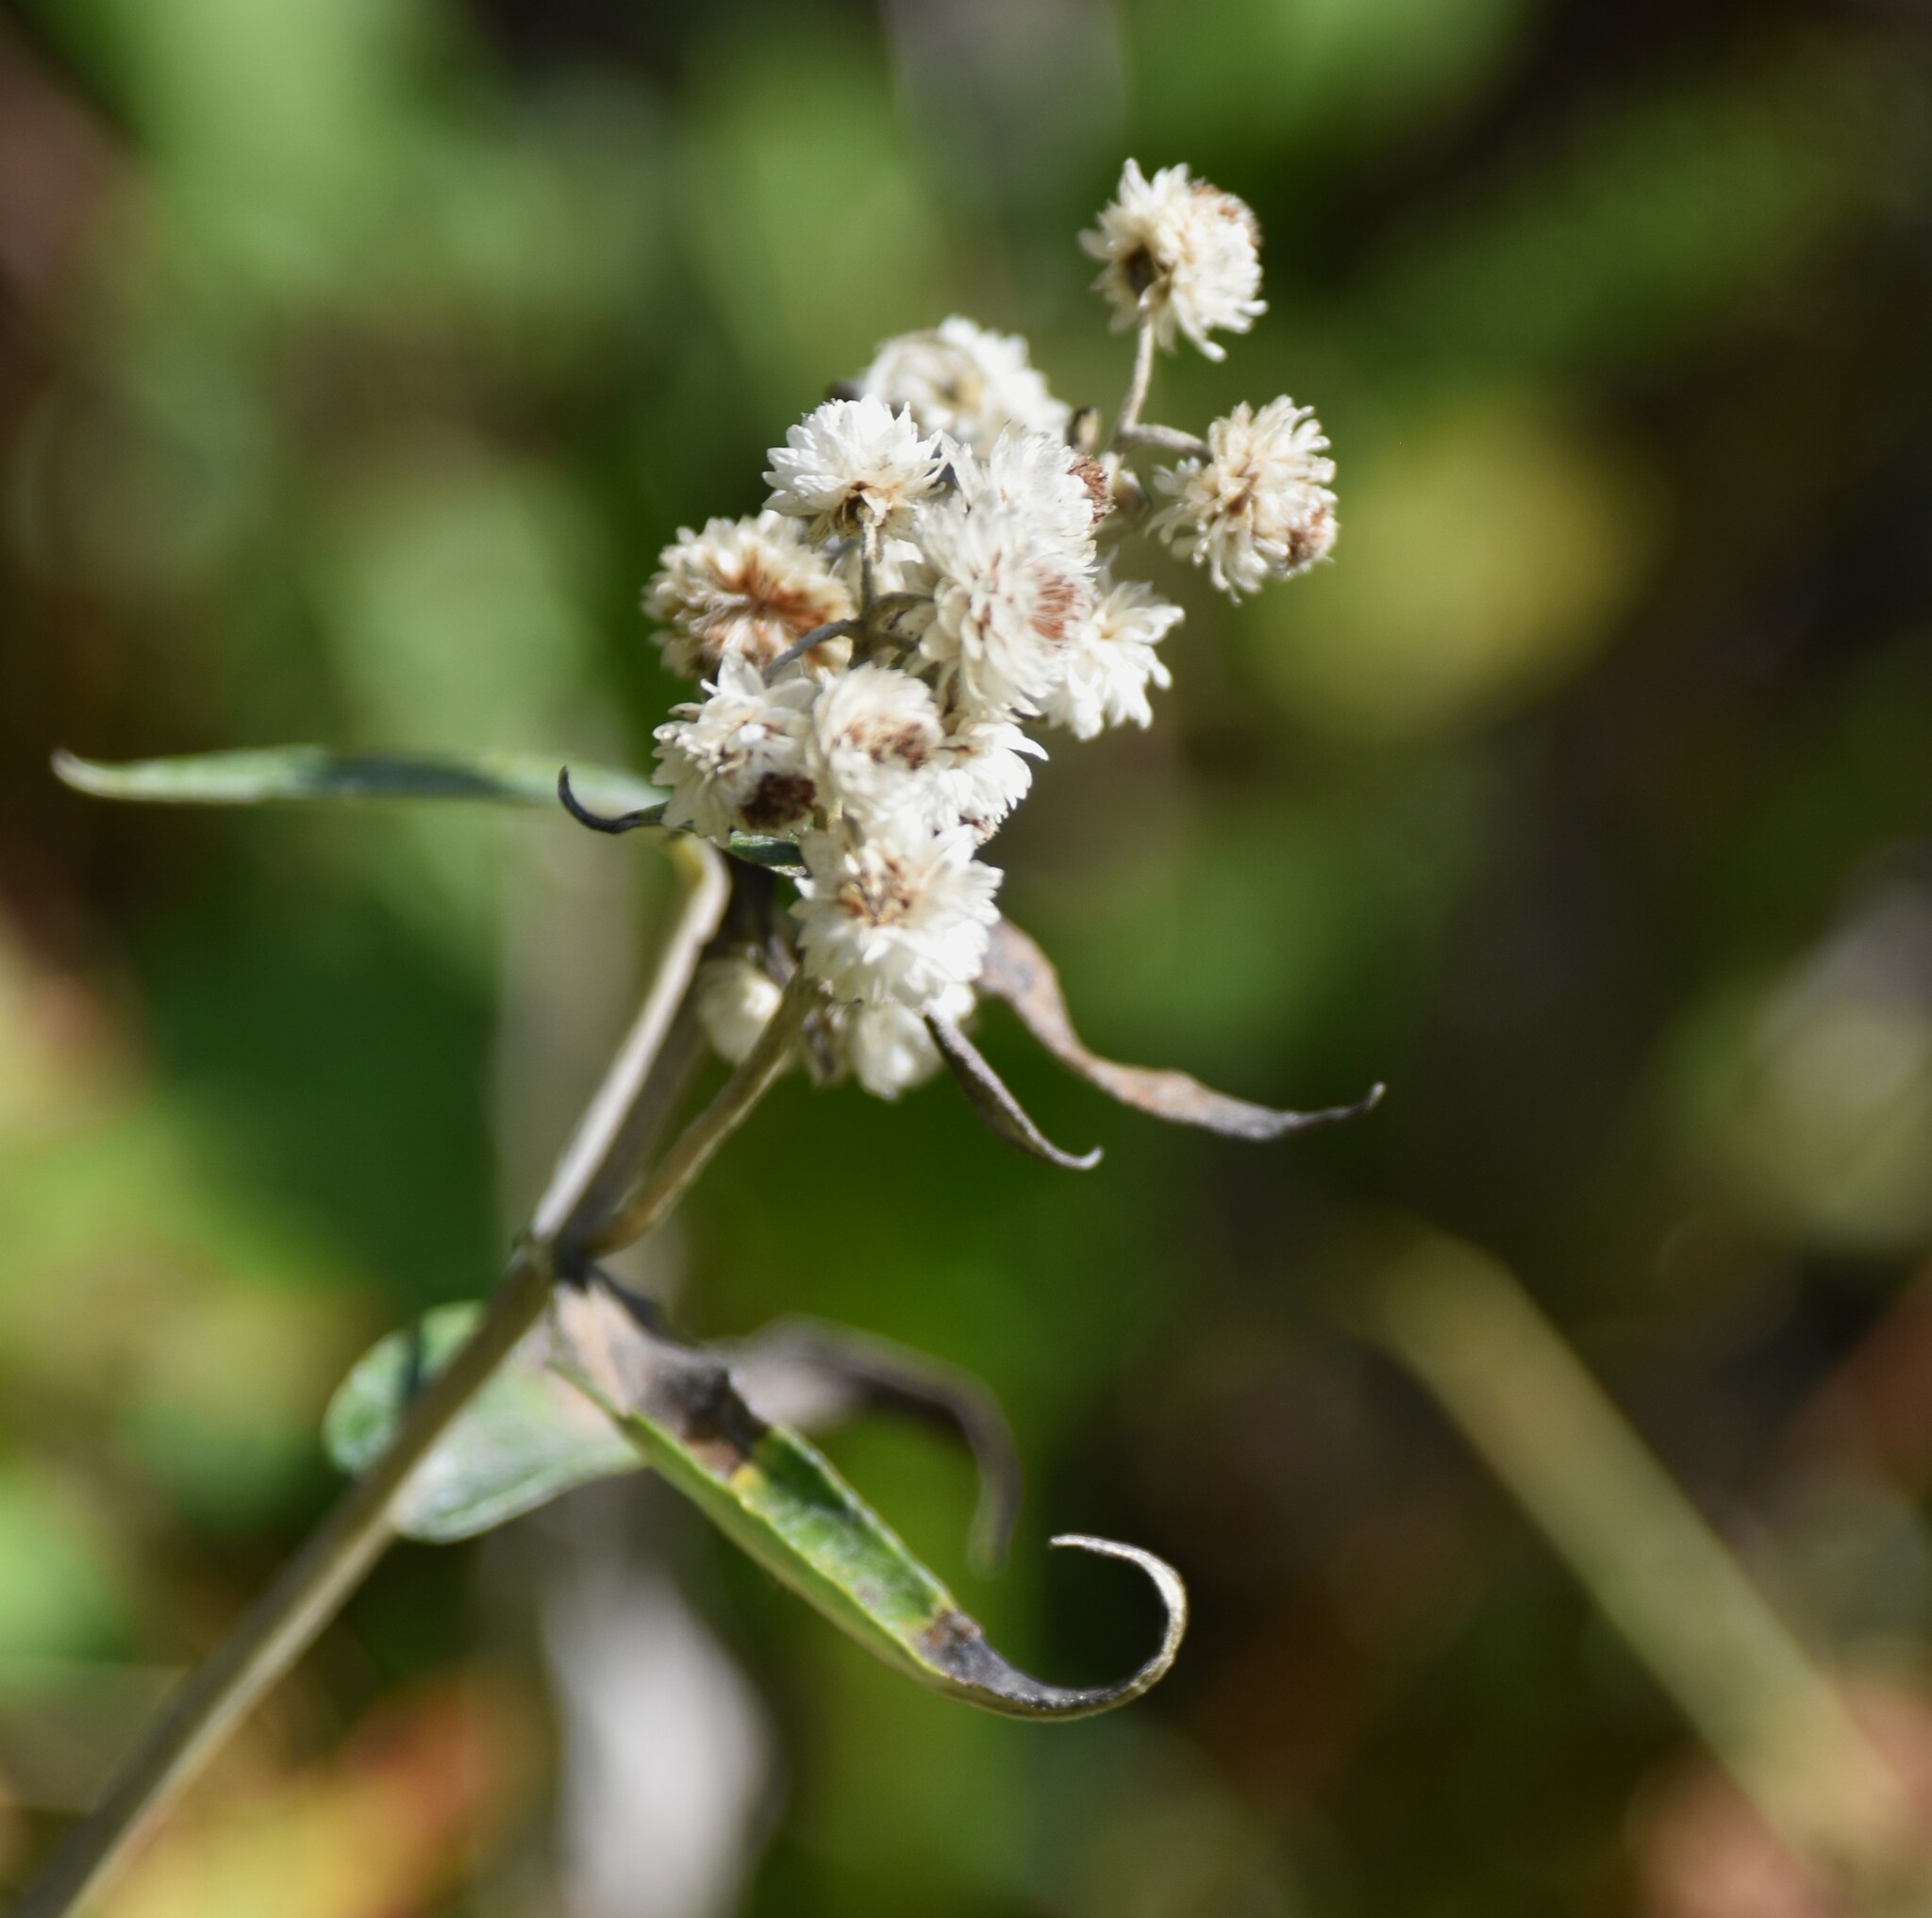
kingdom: Plantae
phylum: Tracheophyta
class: Magnoliopsida
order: Asterales
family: Asteraceae
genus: Anaphalis
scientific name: Anaphalis margaritacea
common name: Pearly everlasting
